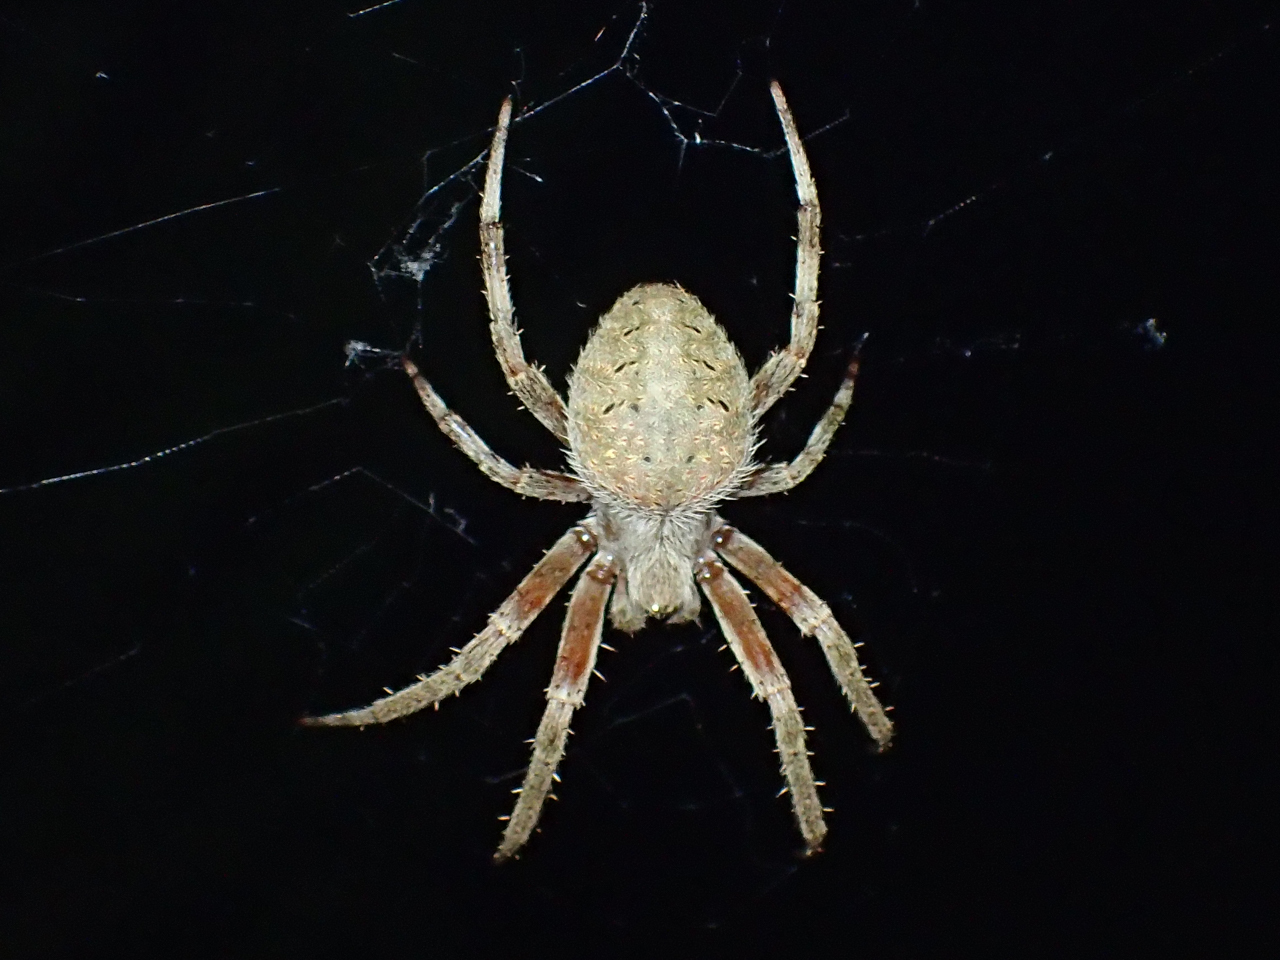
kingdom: Animalia
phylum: Arthropoda
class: Arachnida
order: Araneae
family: Araneidae
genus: Neoscona
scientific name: Neoscona domiciliorum
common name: Red-femured spotted orbweaver
